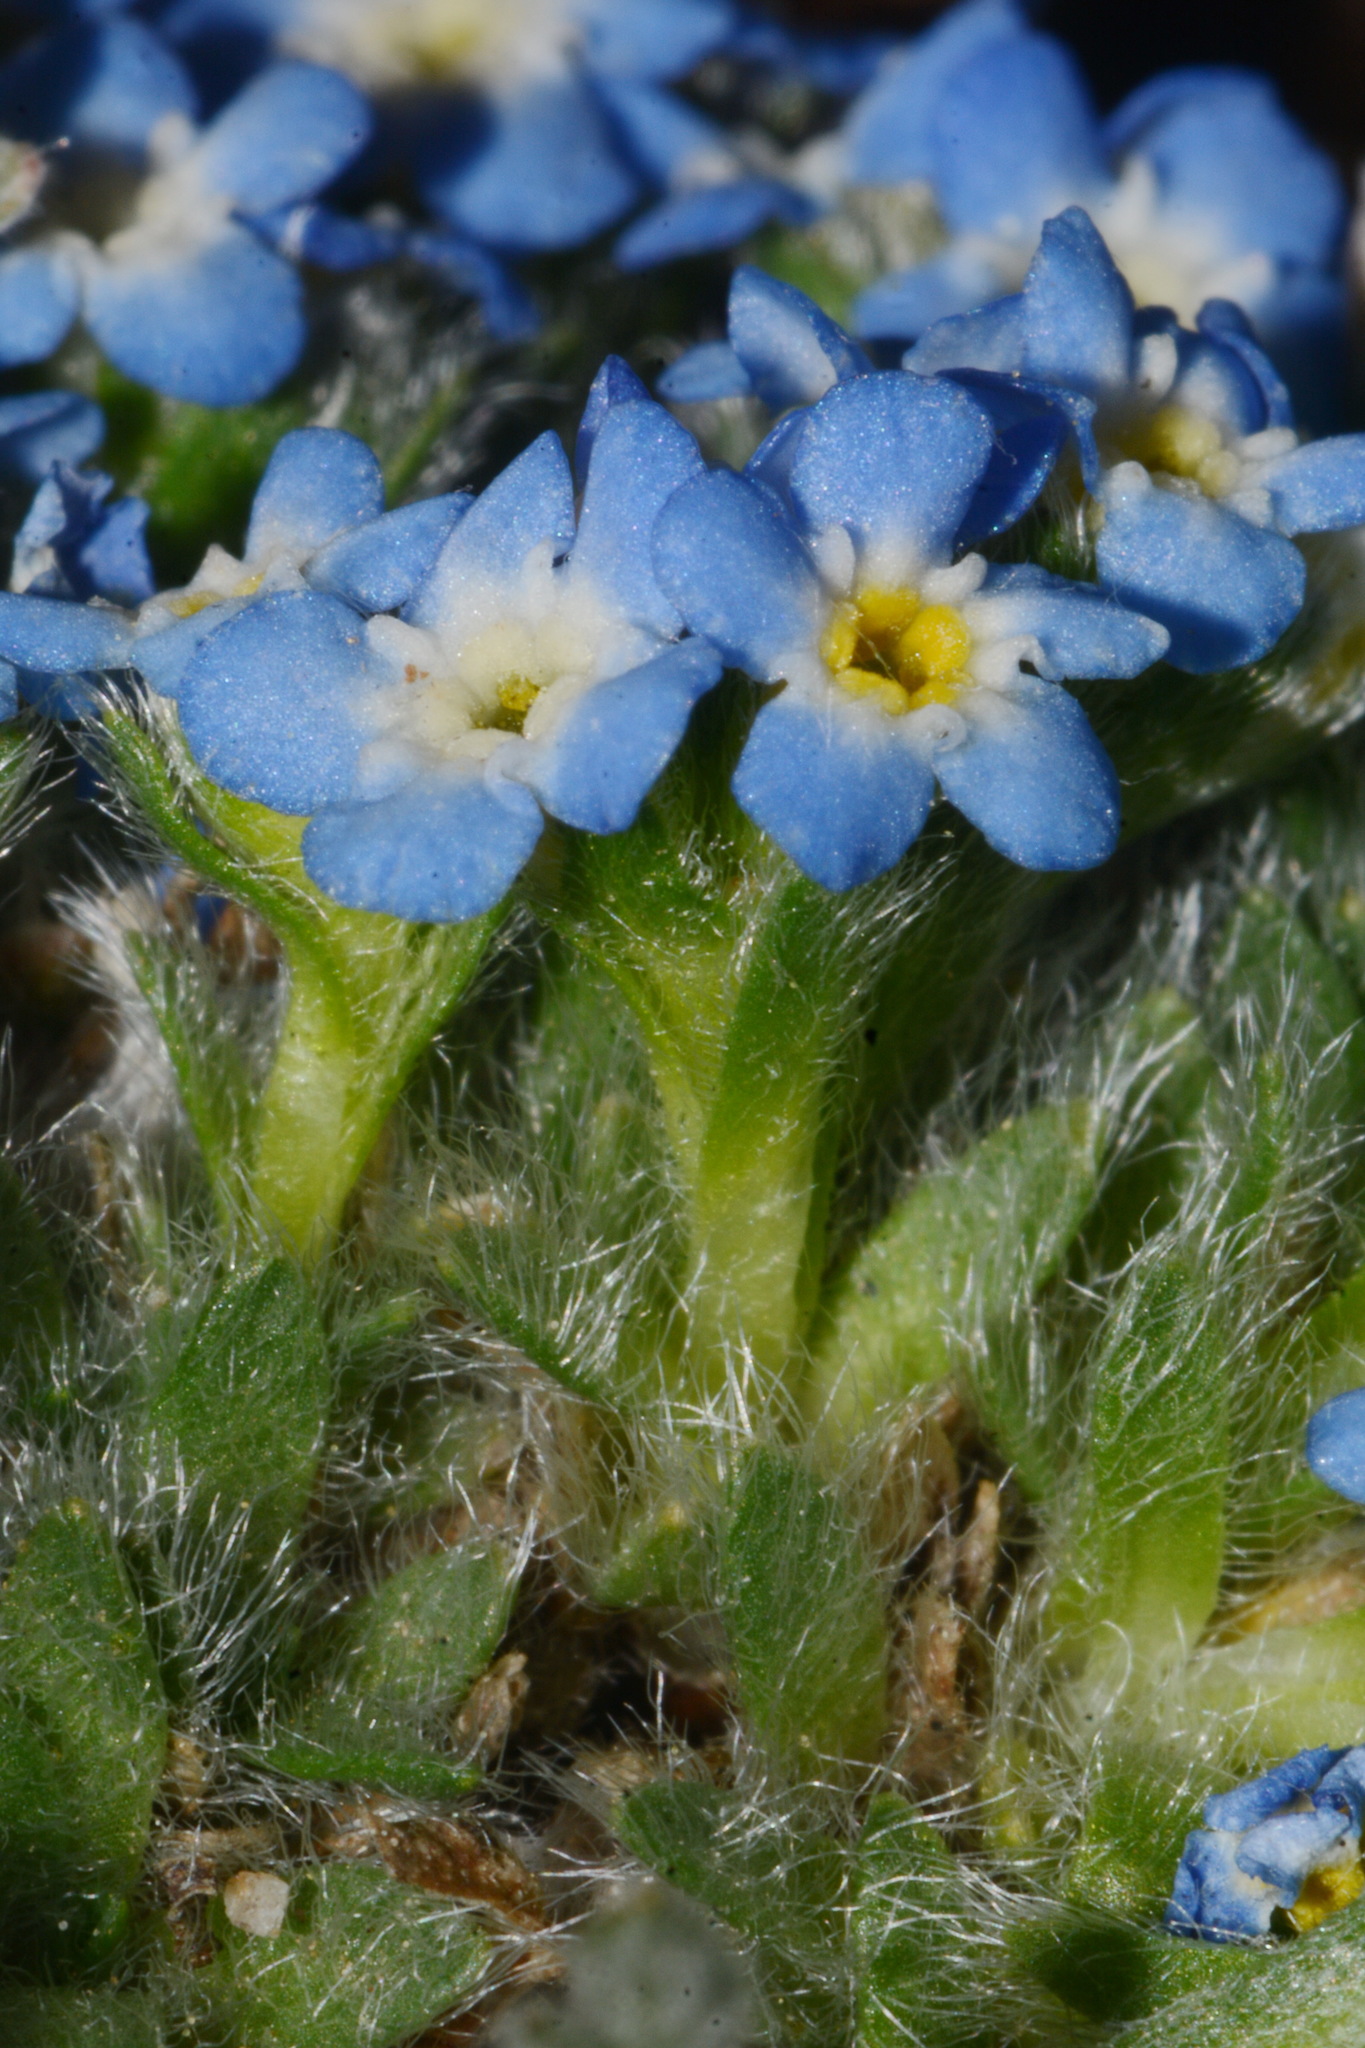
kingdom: Plantae
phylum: Tracheophyta
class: Magnoliopsida
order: Boraginales
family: Boraginaceae
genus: Eritrichium
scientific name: Eritrichium argenteum
